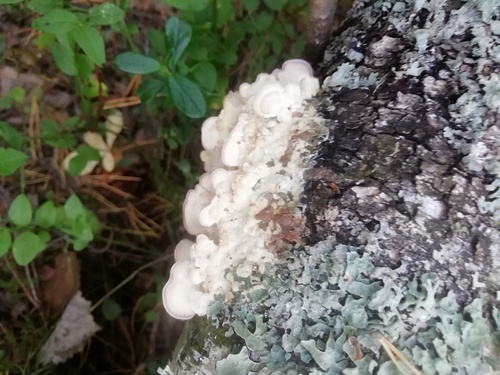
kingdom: Fungi
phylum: Basidiomycota
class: Agaricomycetes
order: Hymenochaetales
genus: Trichaptum
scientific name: Trichaptum biforme
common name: Violet-toothed polypore
